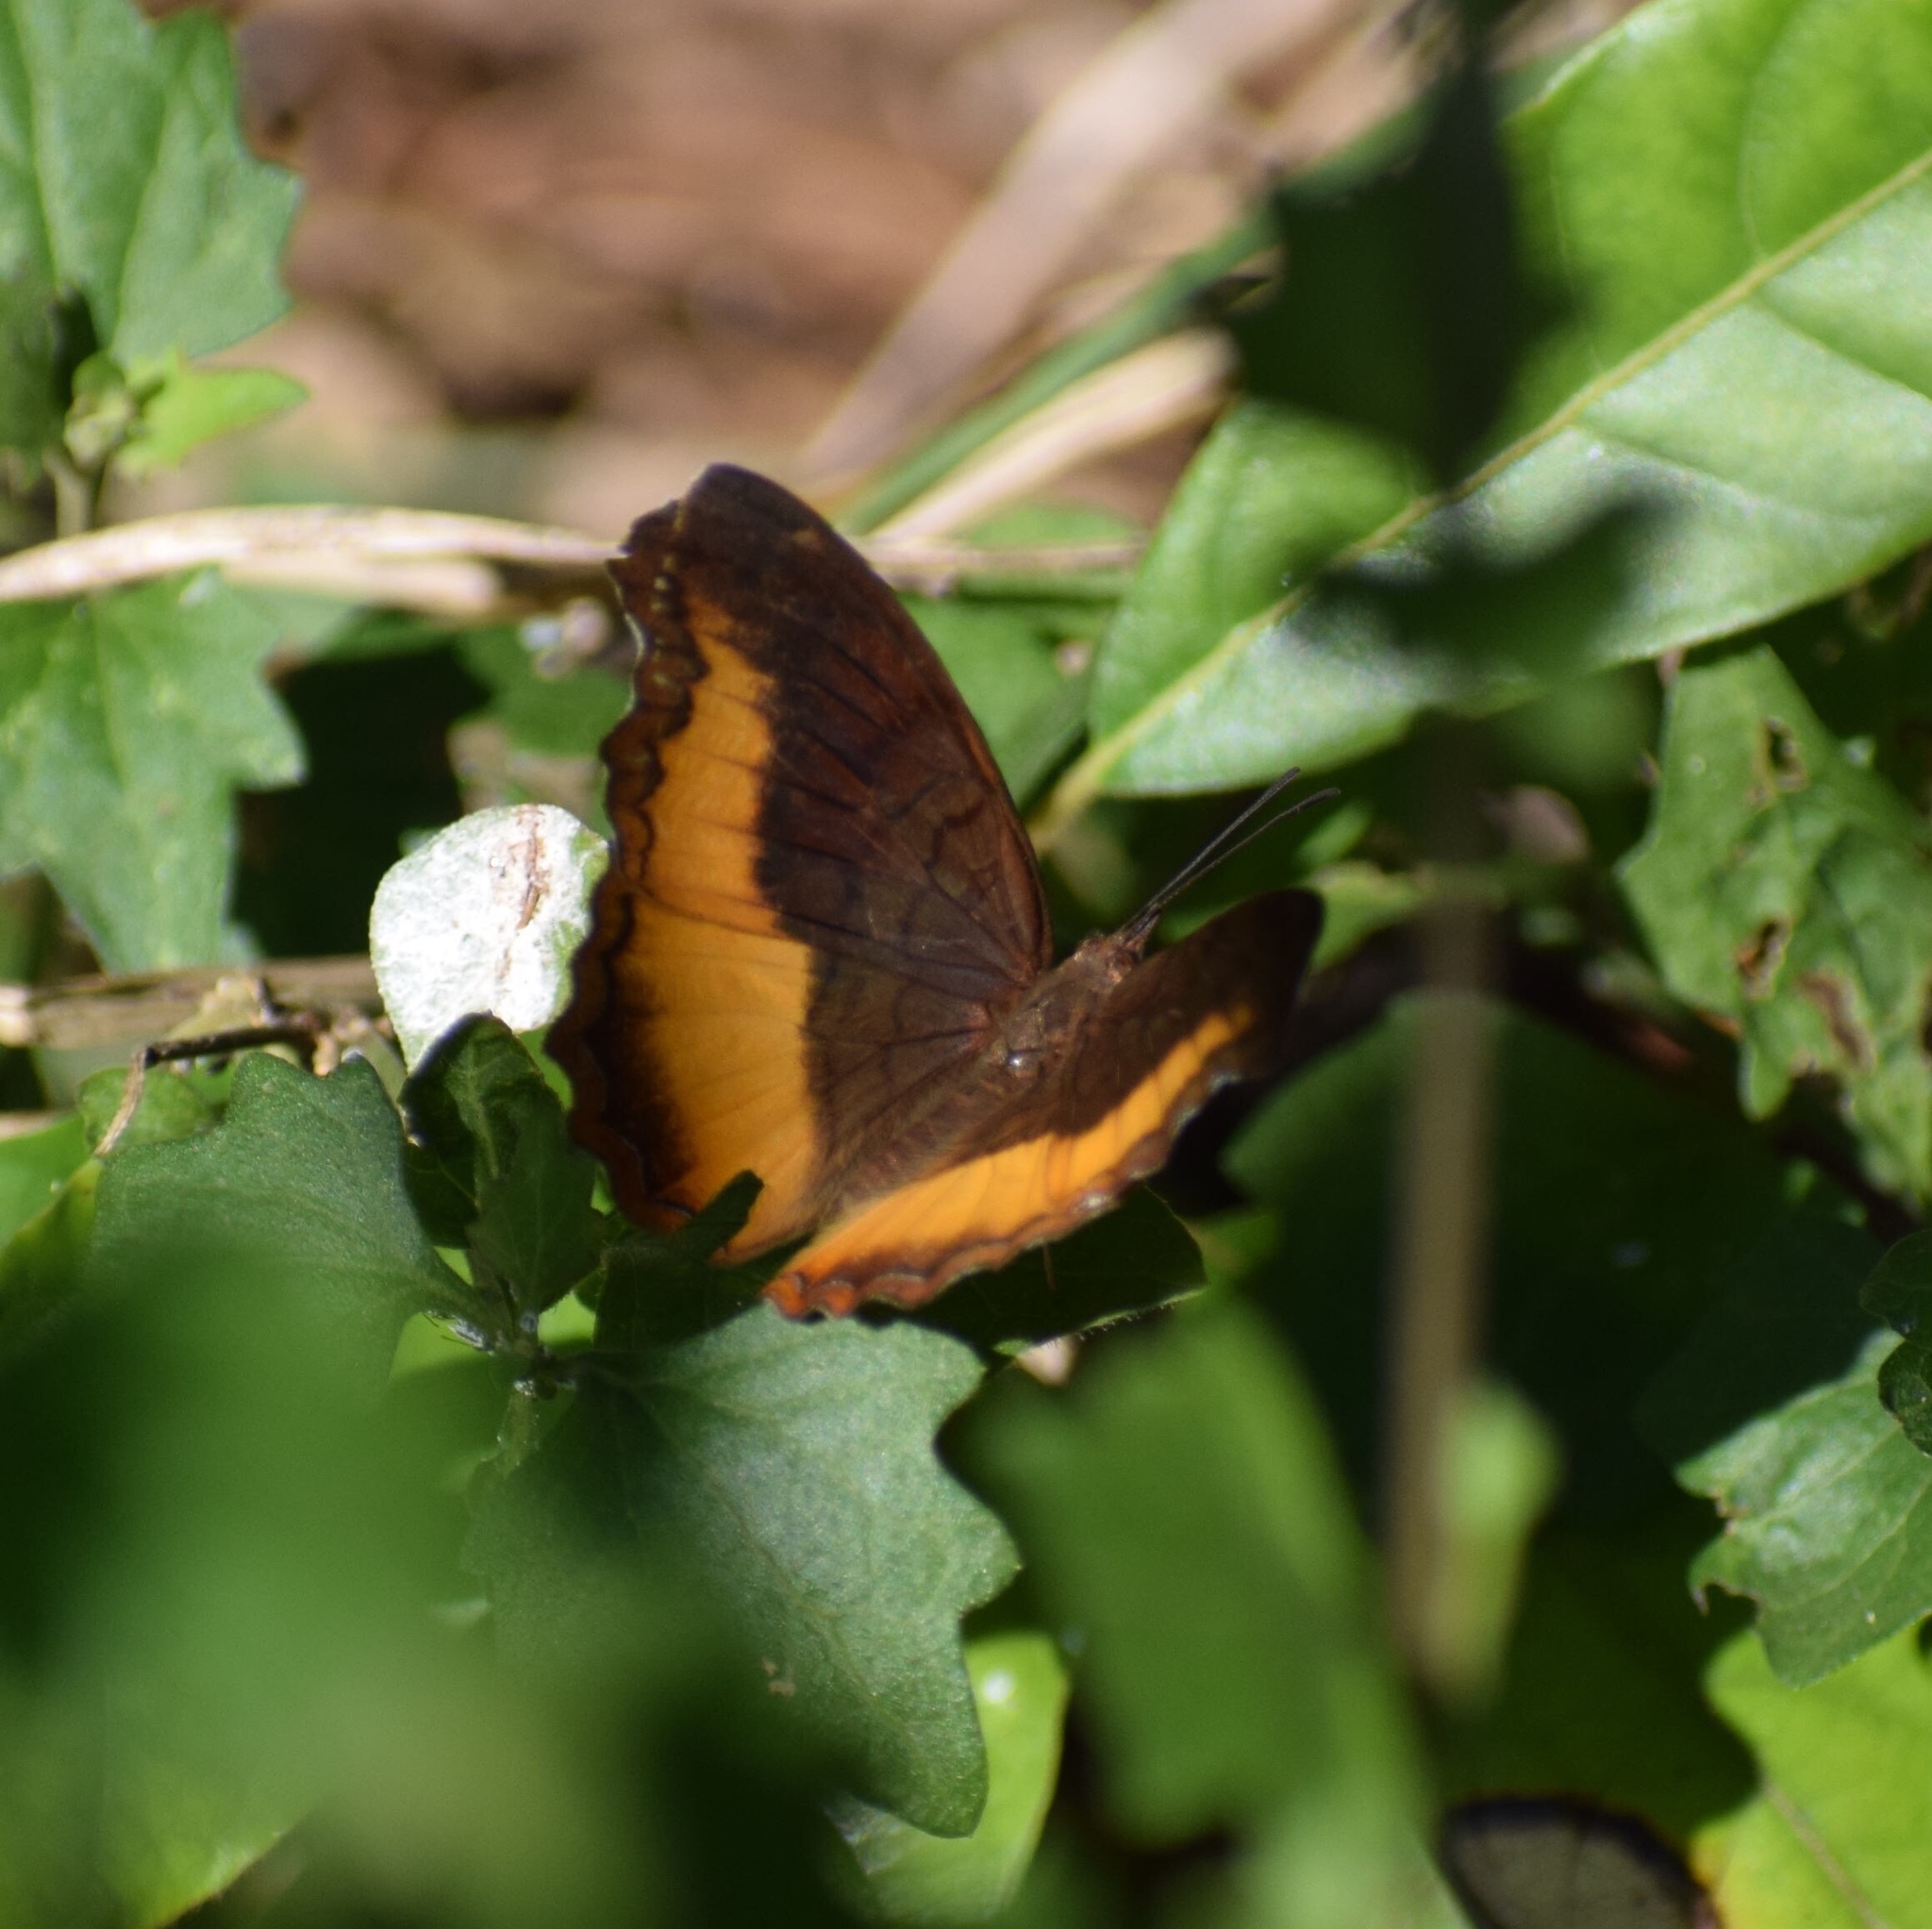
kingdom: Animalia
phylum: Arthropoda
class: Insecta
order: Lepidoptera
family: Nymphalidae
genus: Eurytela
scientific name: Eurytela dryope
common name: Golden piper
